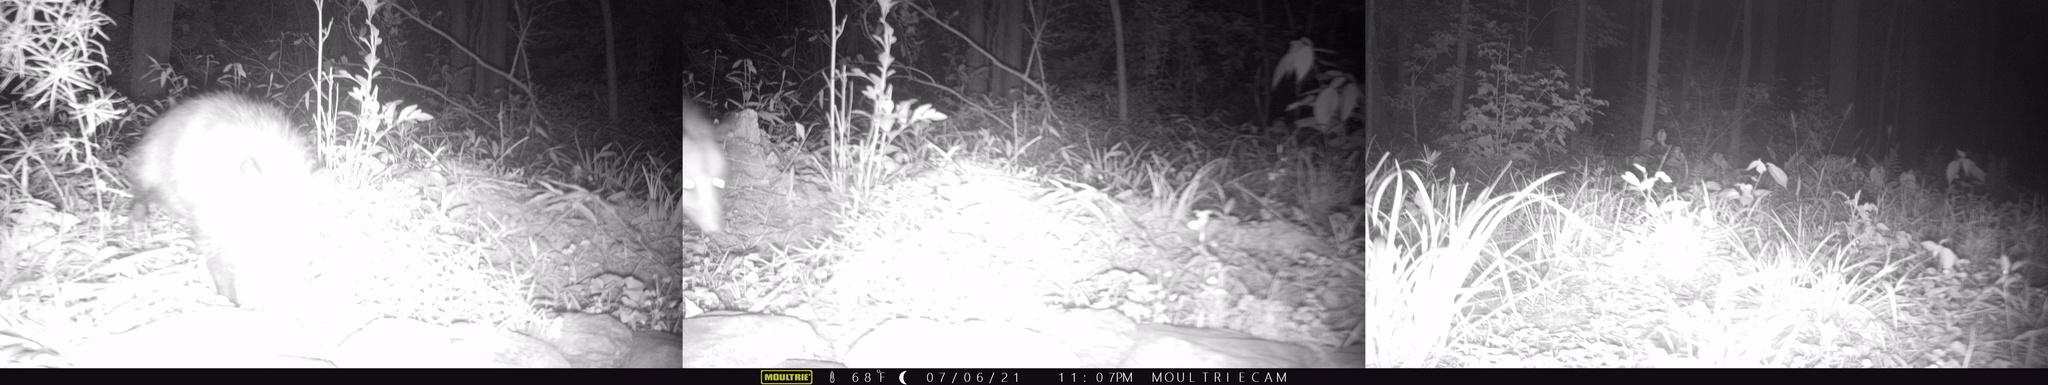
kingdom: Animalia
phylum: Chordata
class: Mammalia
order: Didelphimorphia
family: Didelphidae
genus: Didelphis
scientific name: Didelphis virginiana
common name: Virginia opossum
